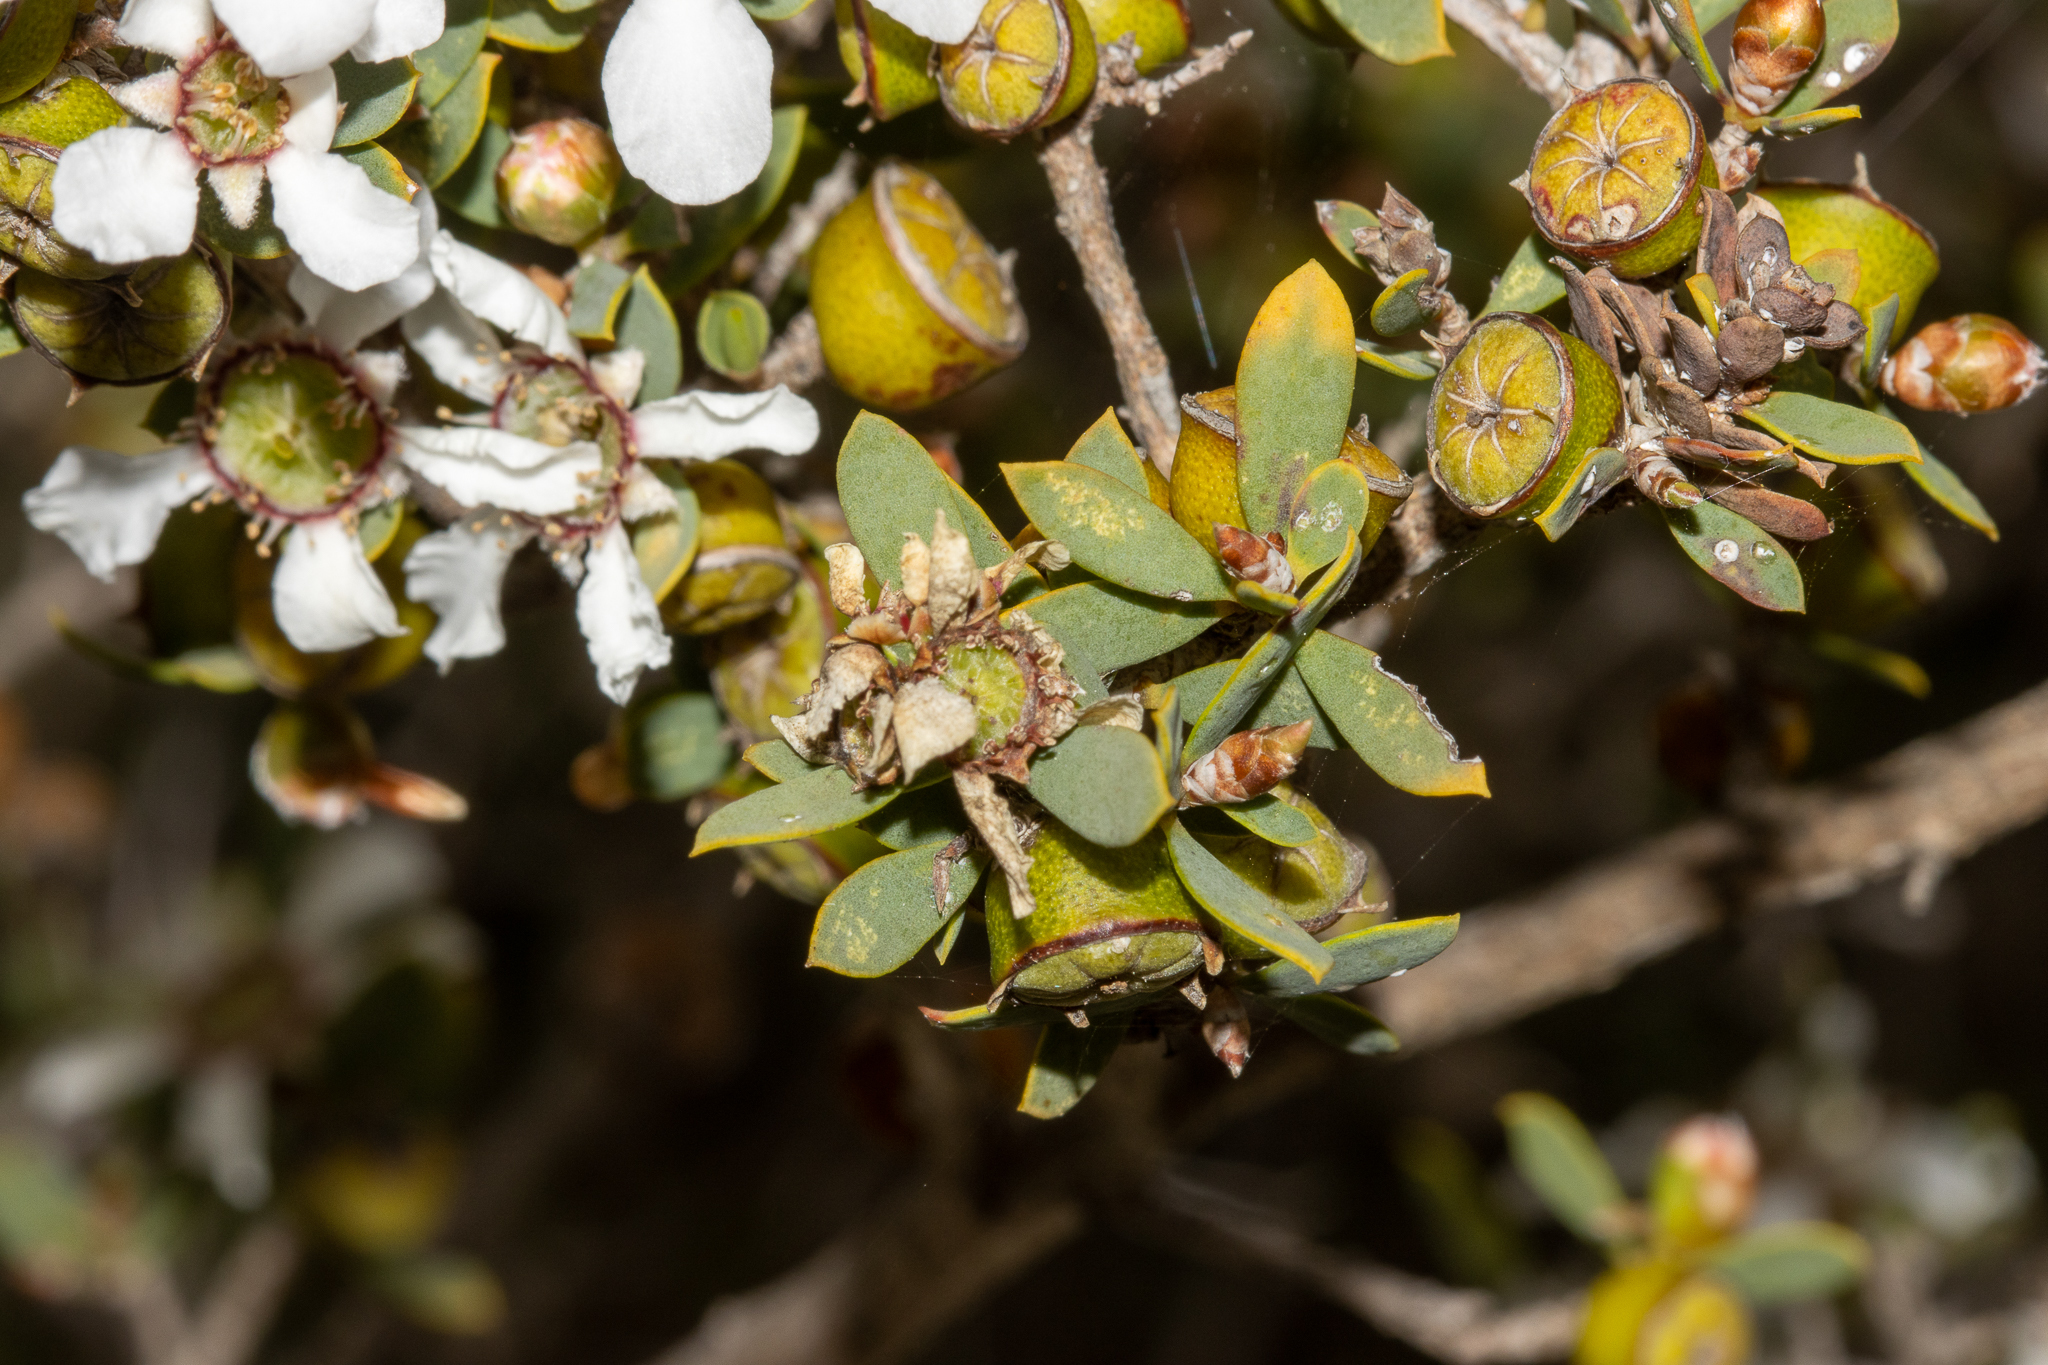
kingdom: Plantae
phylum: Tracheophyta
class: Magnoliopsida
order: Myrtales
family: Myrtaceae
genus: Leptospermum
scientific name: Leptospermum coriaceum
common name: Mallee teatree
